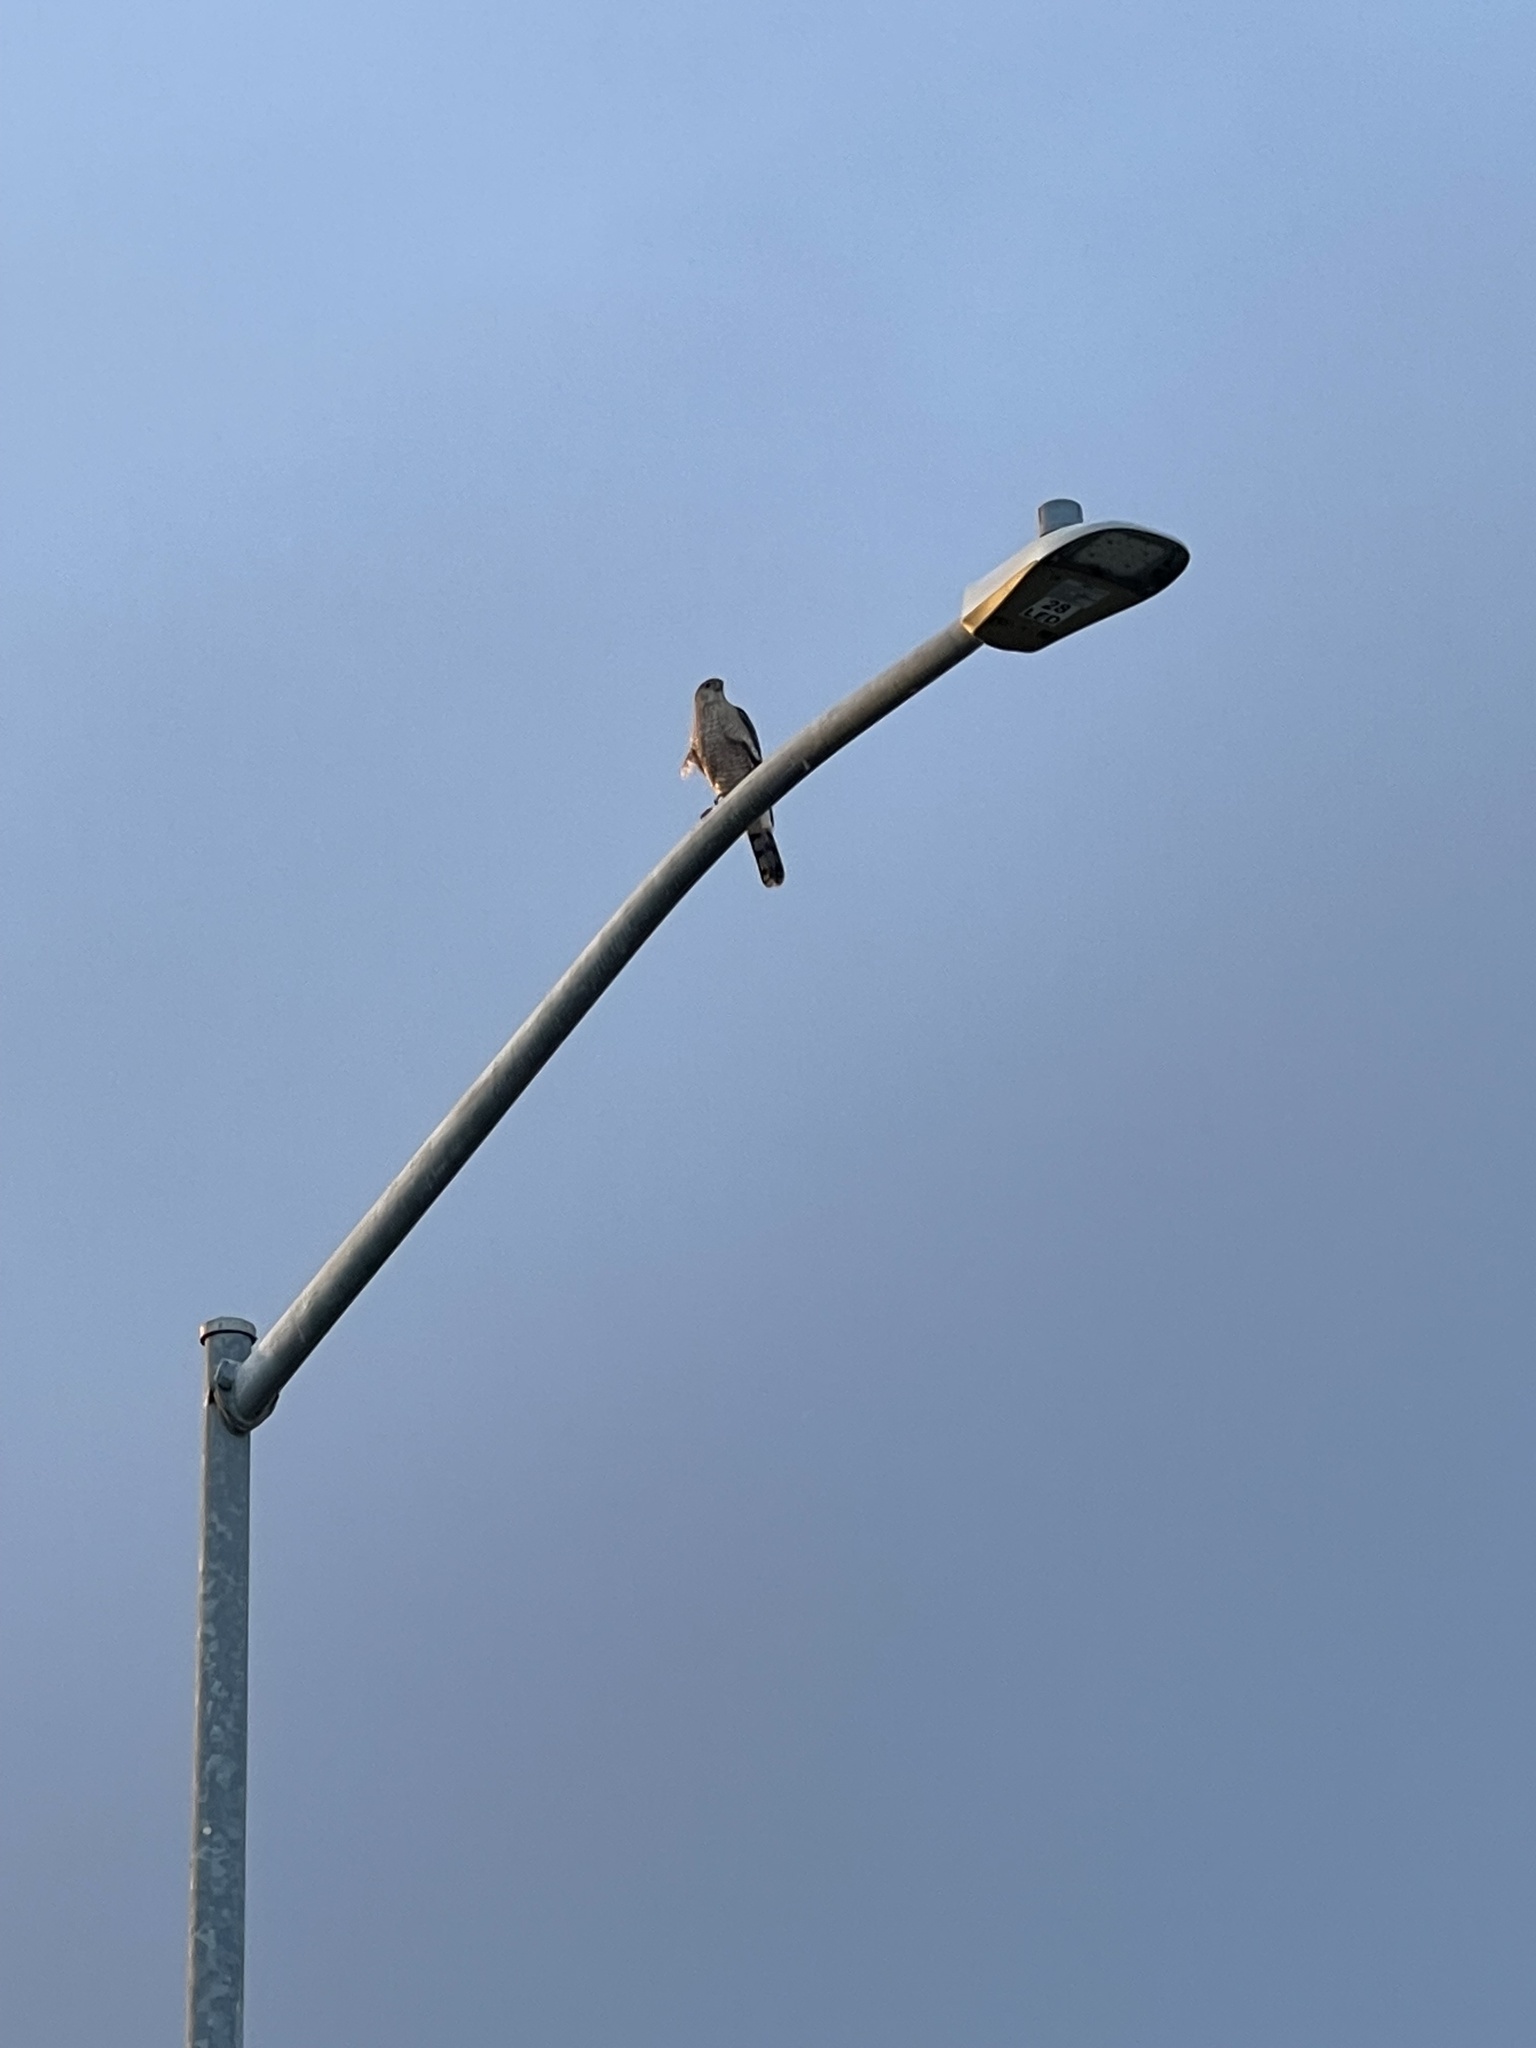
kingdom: Animalia
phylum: Chordata
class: Aves
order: Accipitriformes
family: Accipitridae
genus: Accipiter
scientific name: Accipiter cooperii
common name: Cooper's hawk
